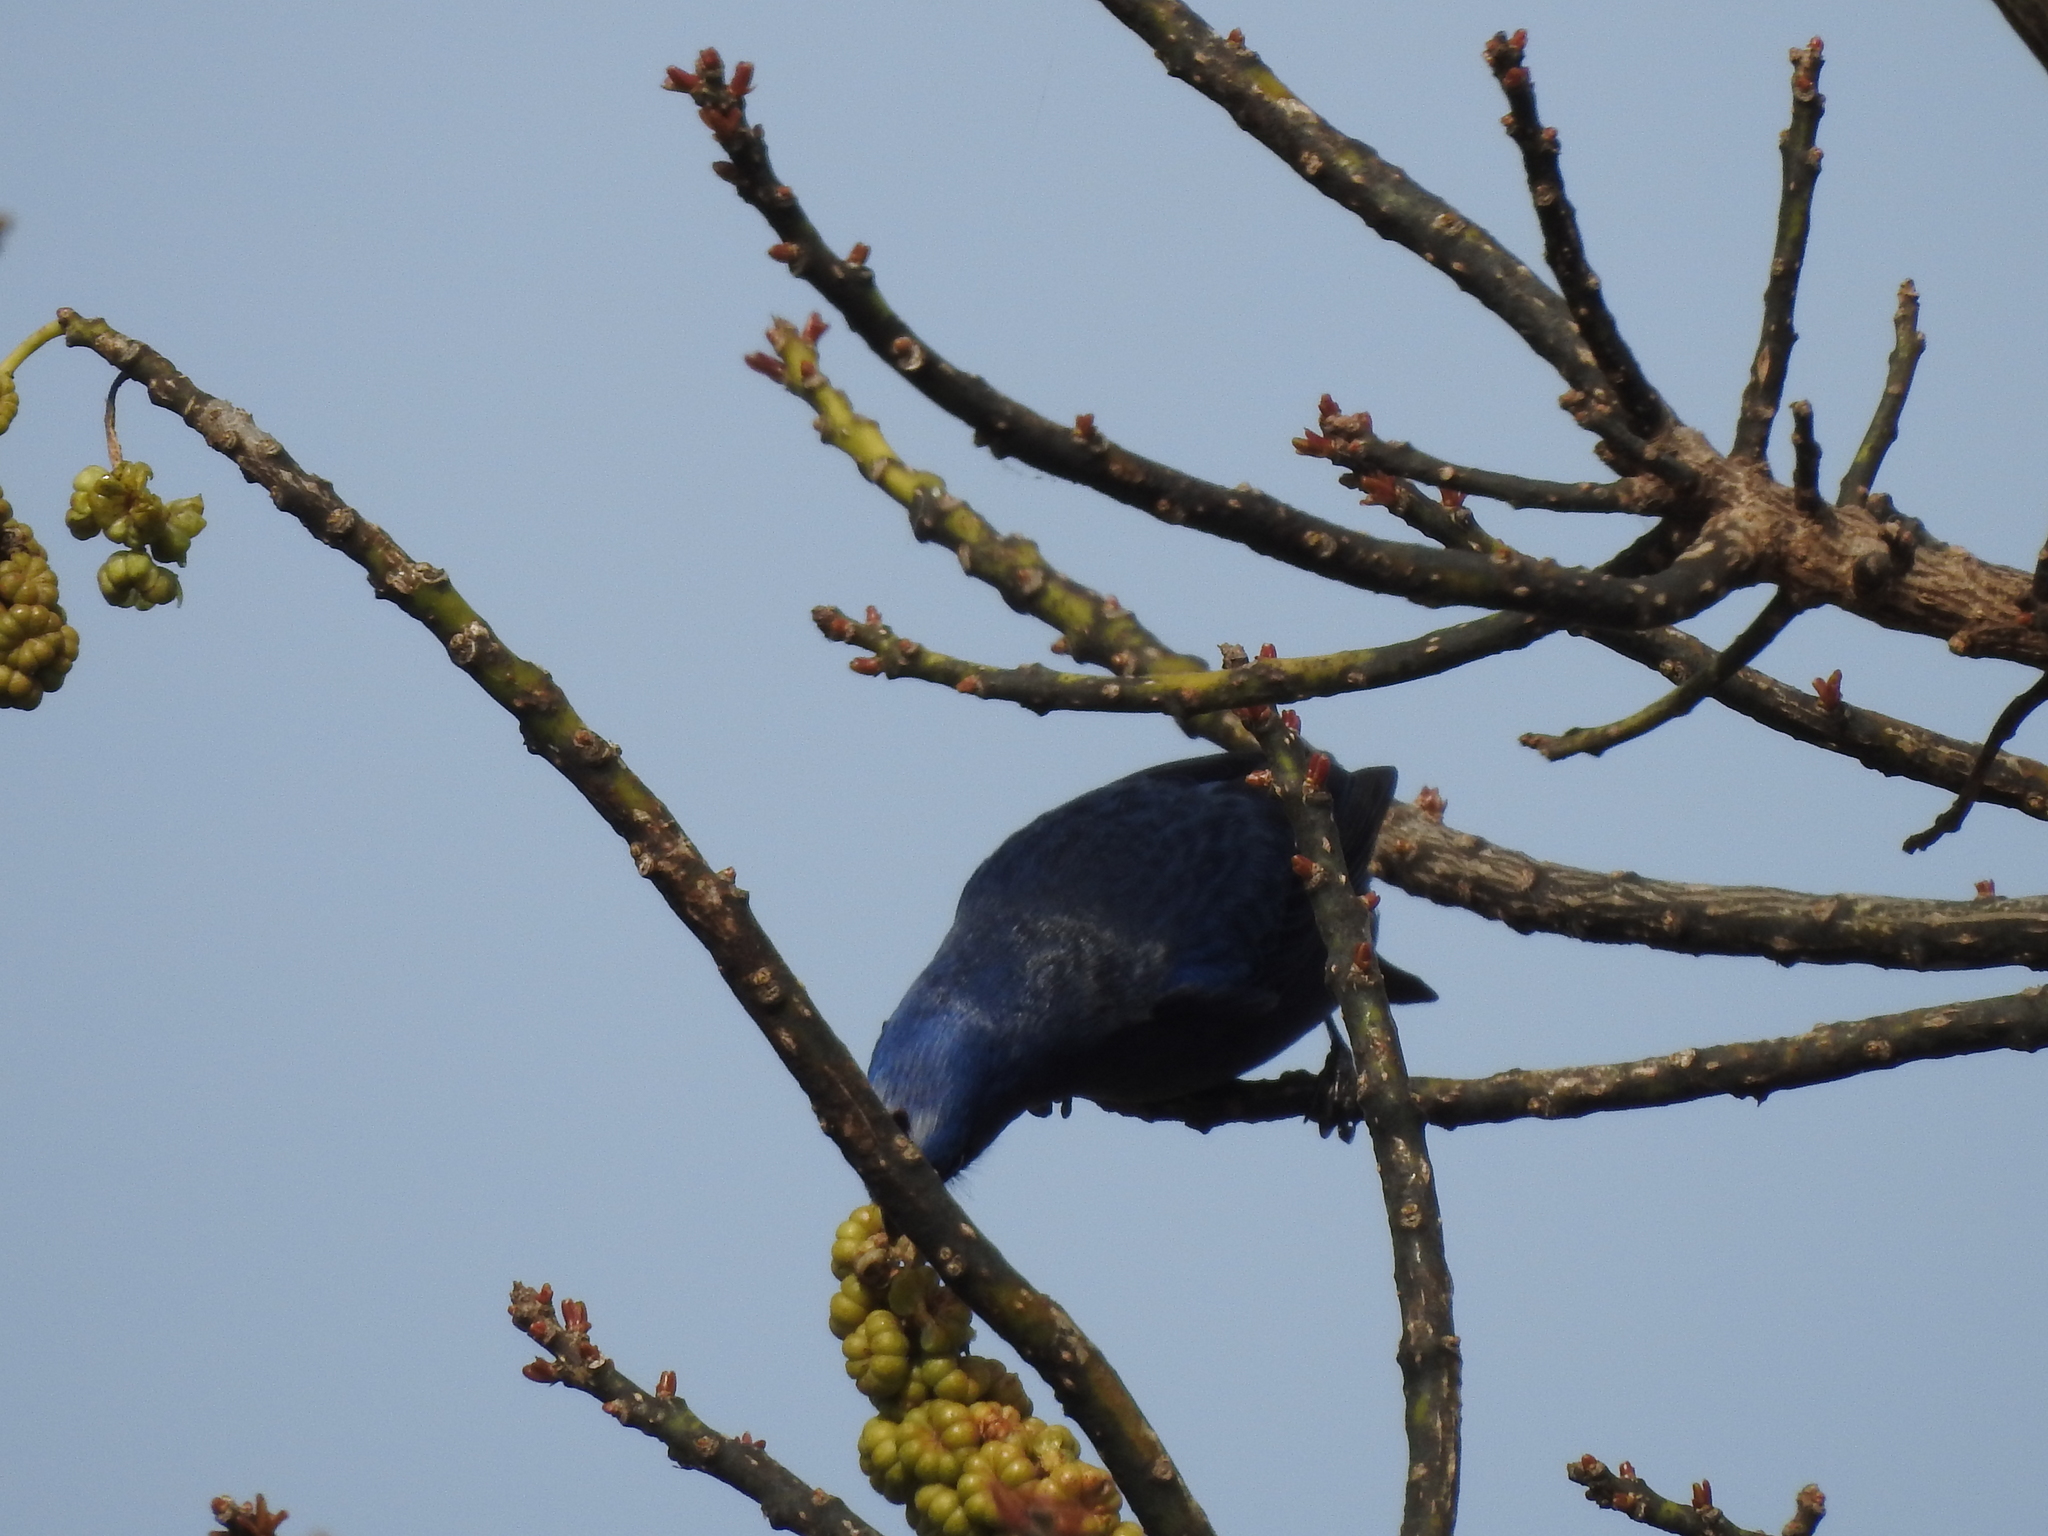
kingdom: Animalia
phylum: Chordata
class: Aves
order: Passeriformes
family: Thraupidae
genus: Stephanophorus
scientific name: Stephanophorus diadematus
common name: Diademed tanager
